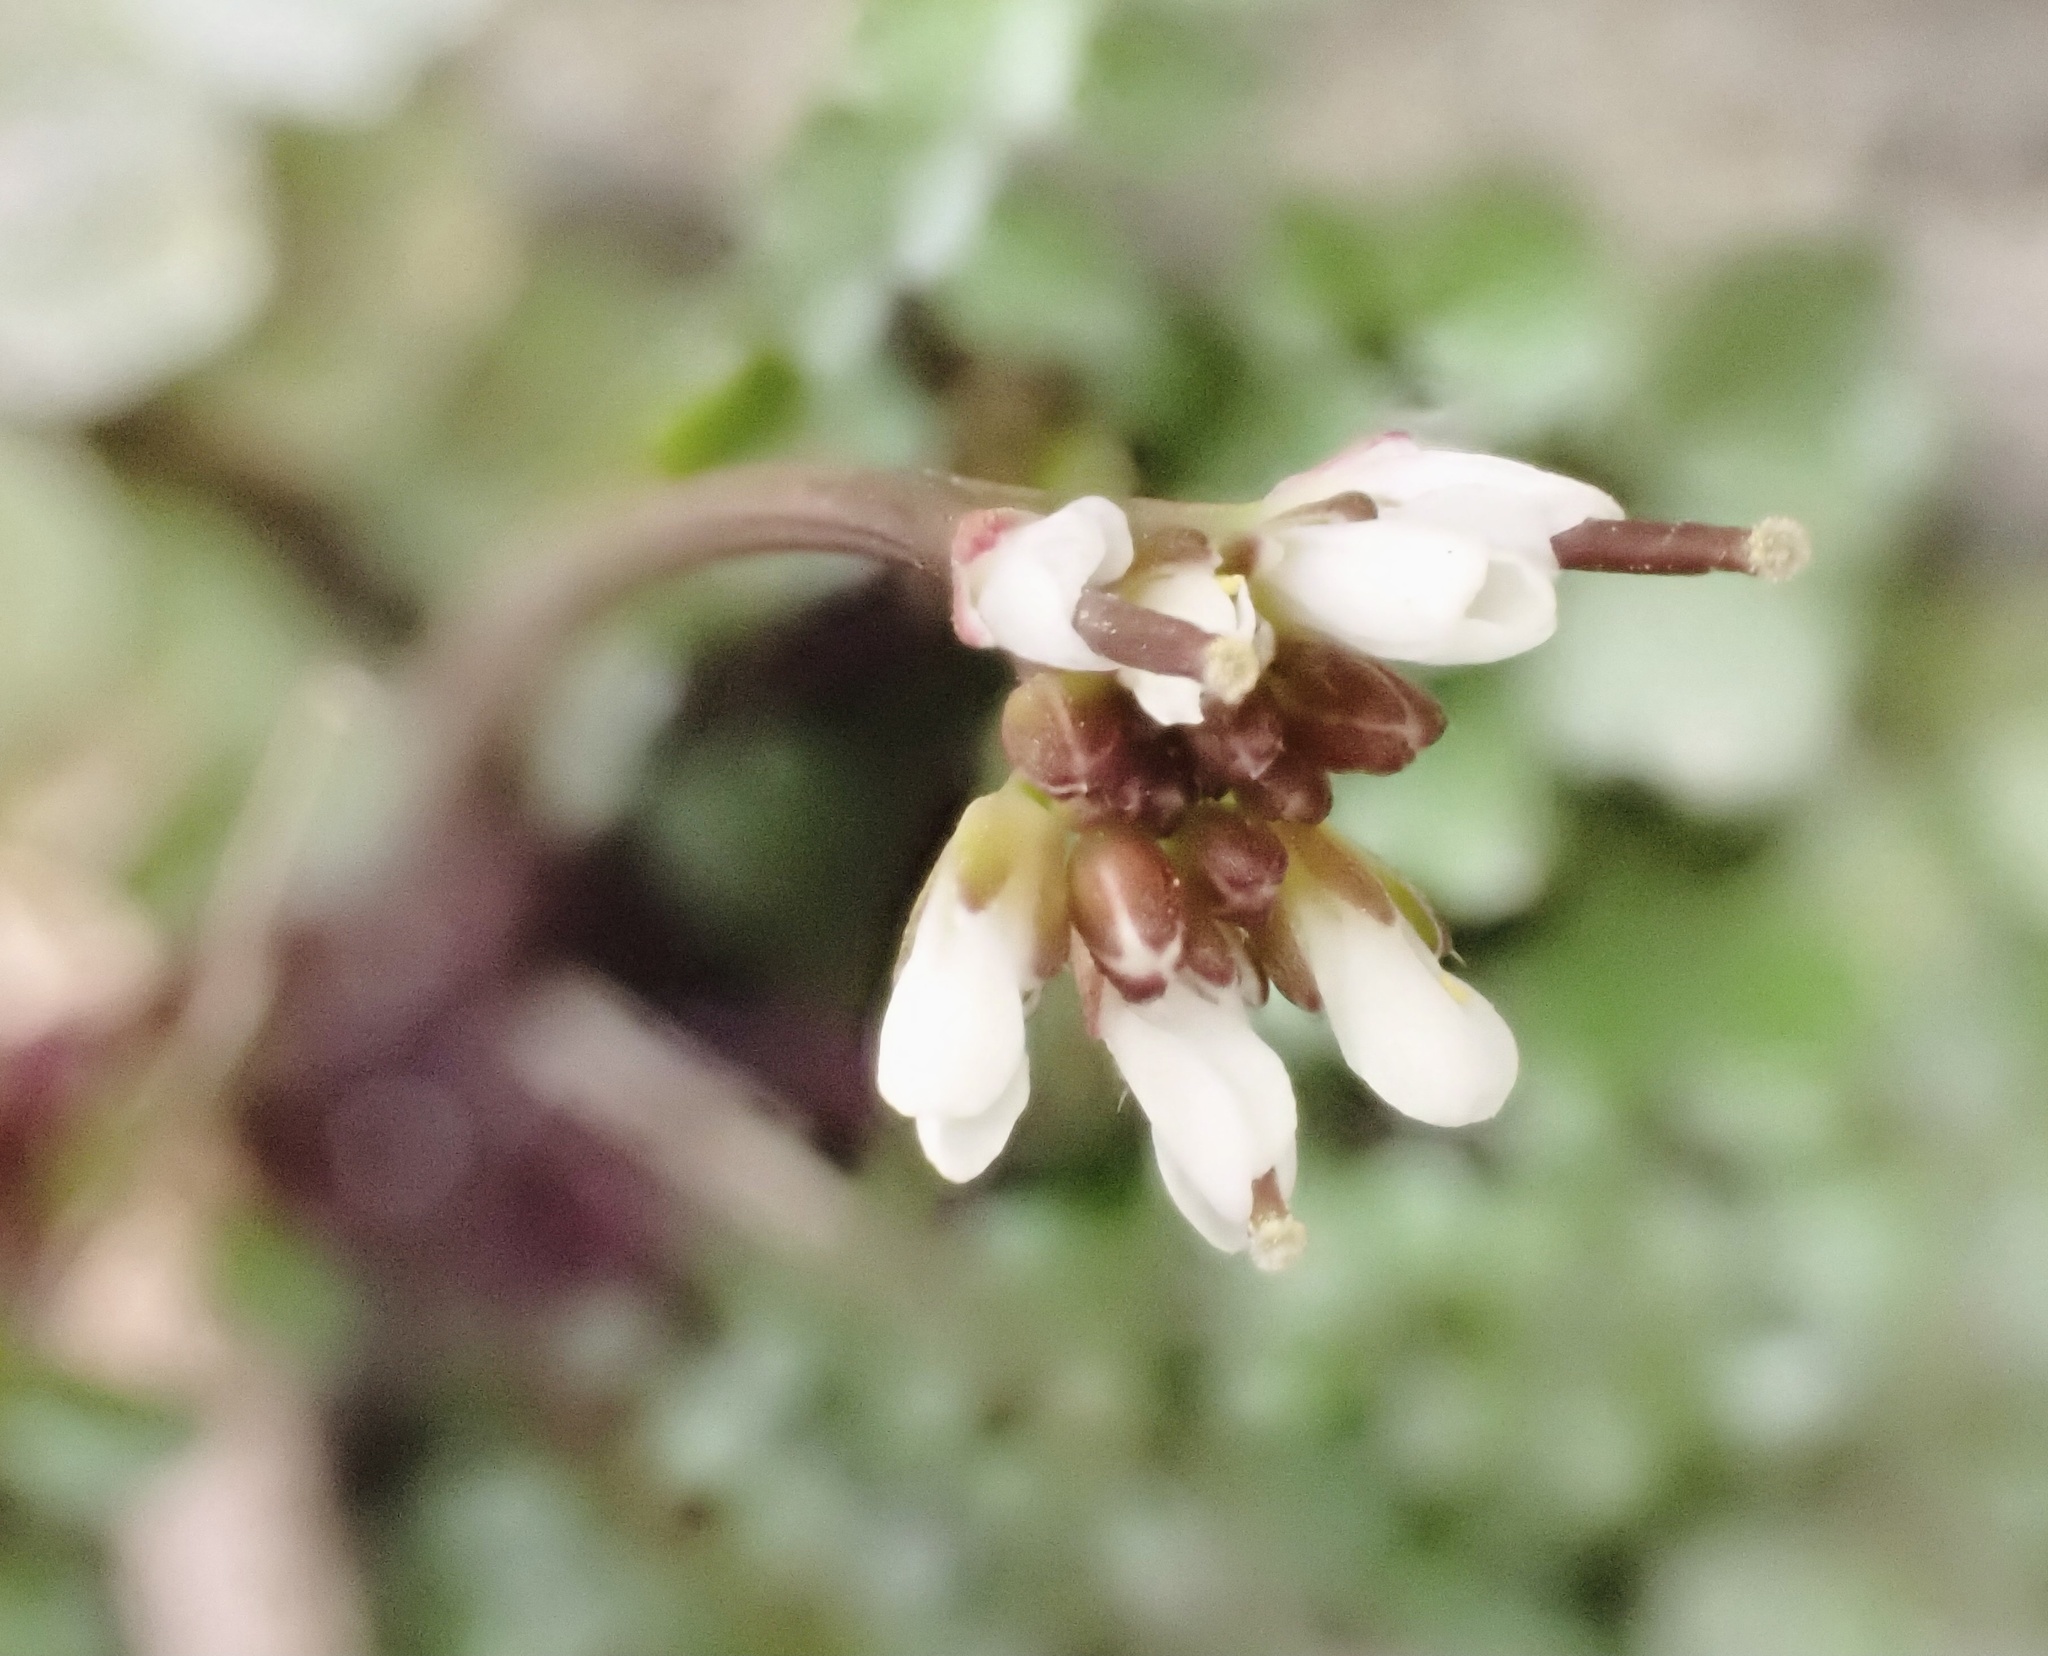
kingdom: Plantae
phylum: Tracheophyta
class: Magnoliopsida
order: Brassicales
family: Brassicaceae
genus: Cardamine
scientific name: Cardamine hirsuta
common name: Hairy bittercress
